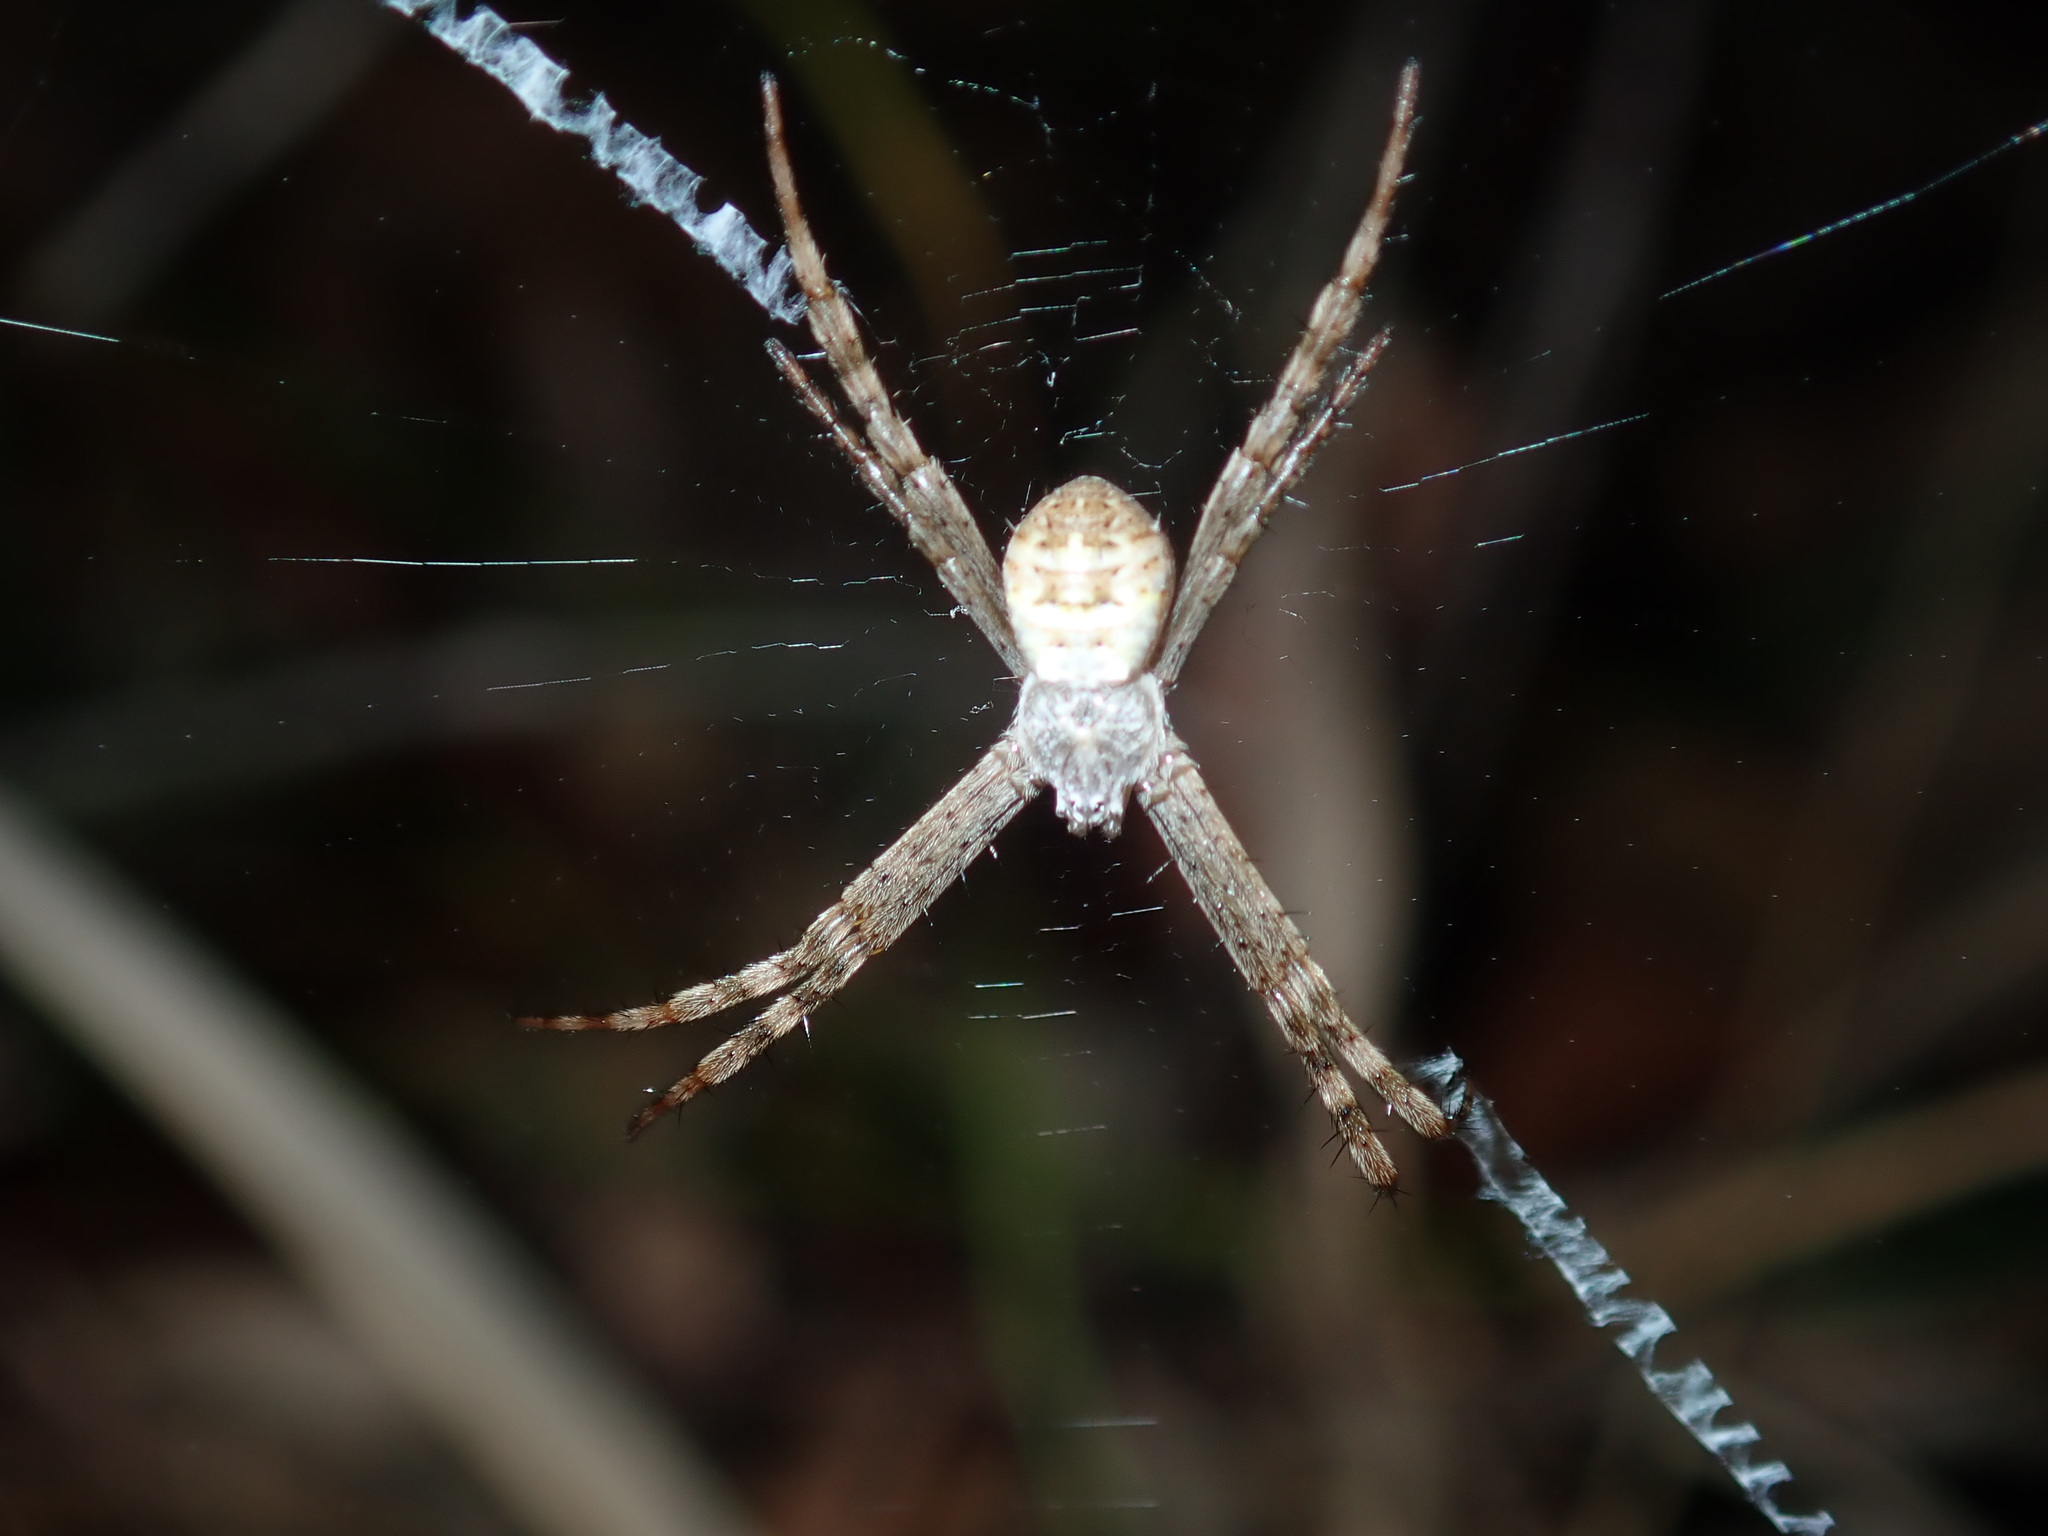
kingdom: Animalia
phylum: Arthropoda
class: Arachnida
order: Araneae
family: Araneidae
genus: Argiope
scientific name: Argiope keyserlingi
